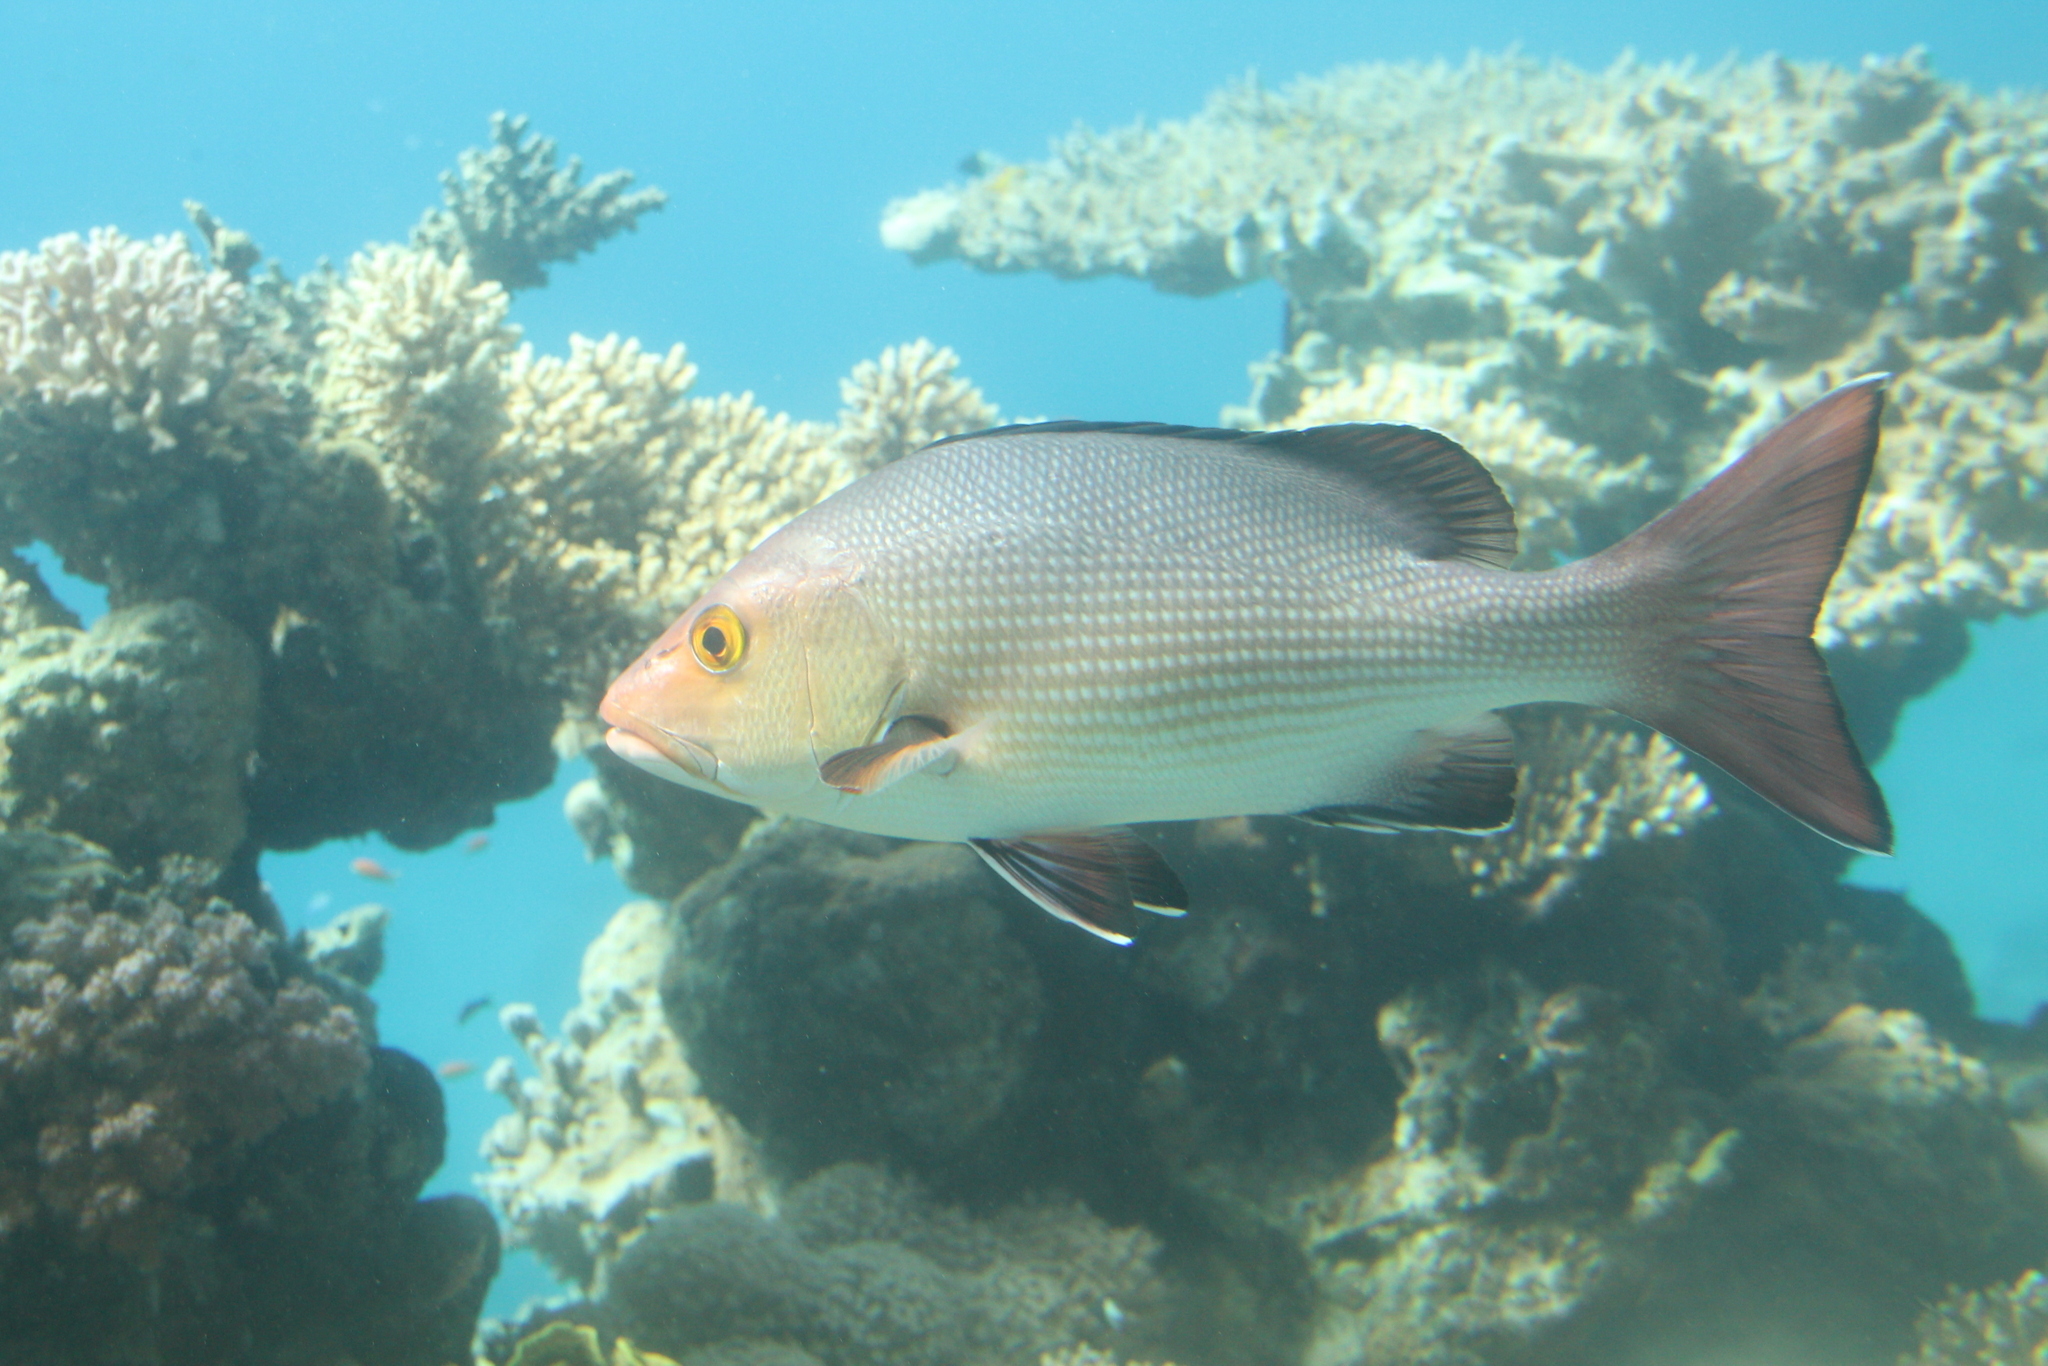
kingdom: Animalia
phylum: Chordata
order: Perciformes
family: Lutjanidae
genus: Lutjanus
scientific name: Lutjanus bohar
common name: Red bass
